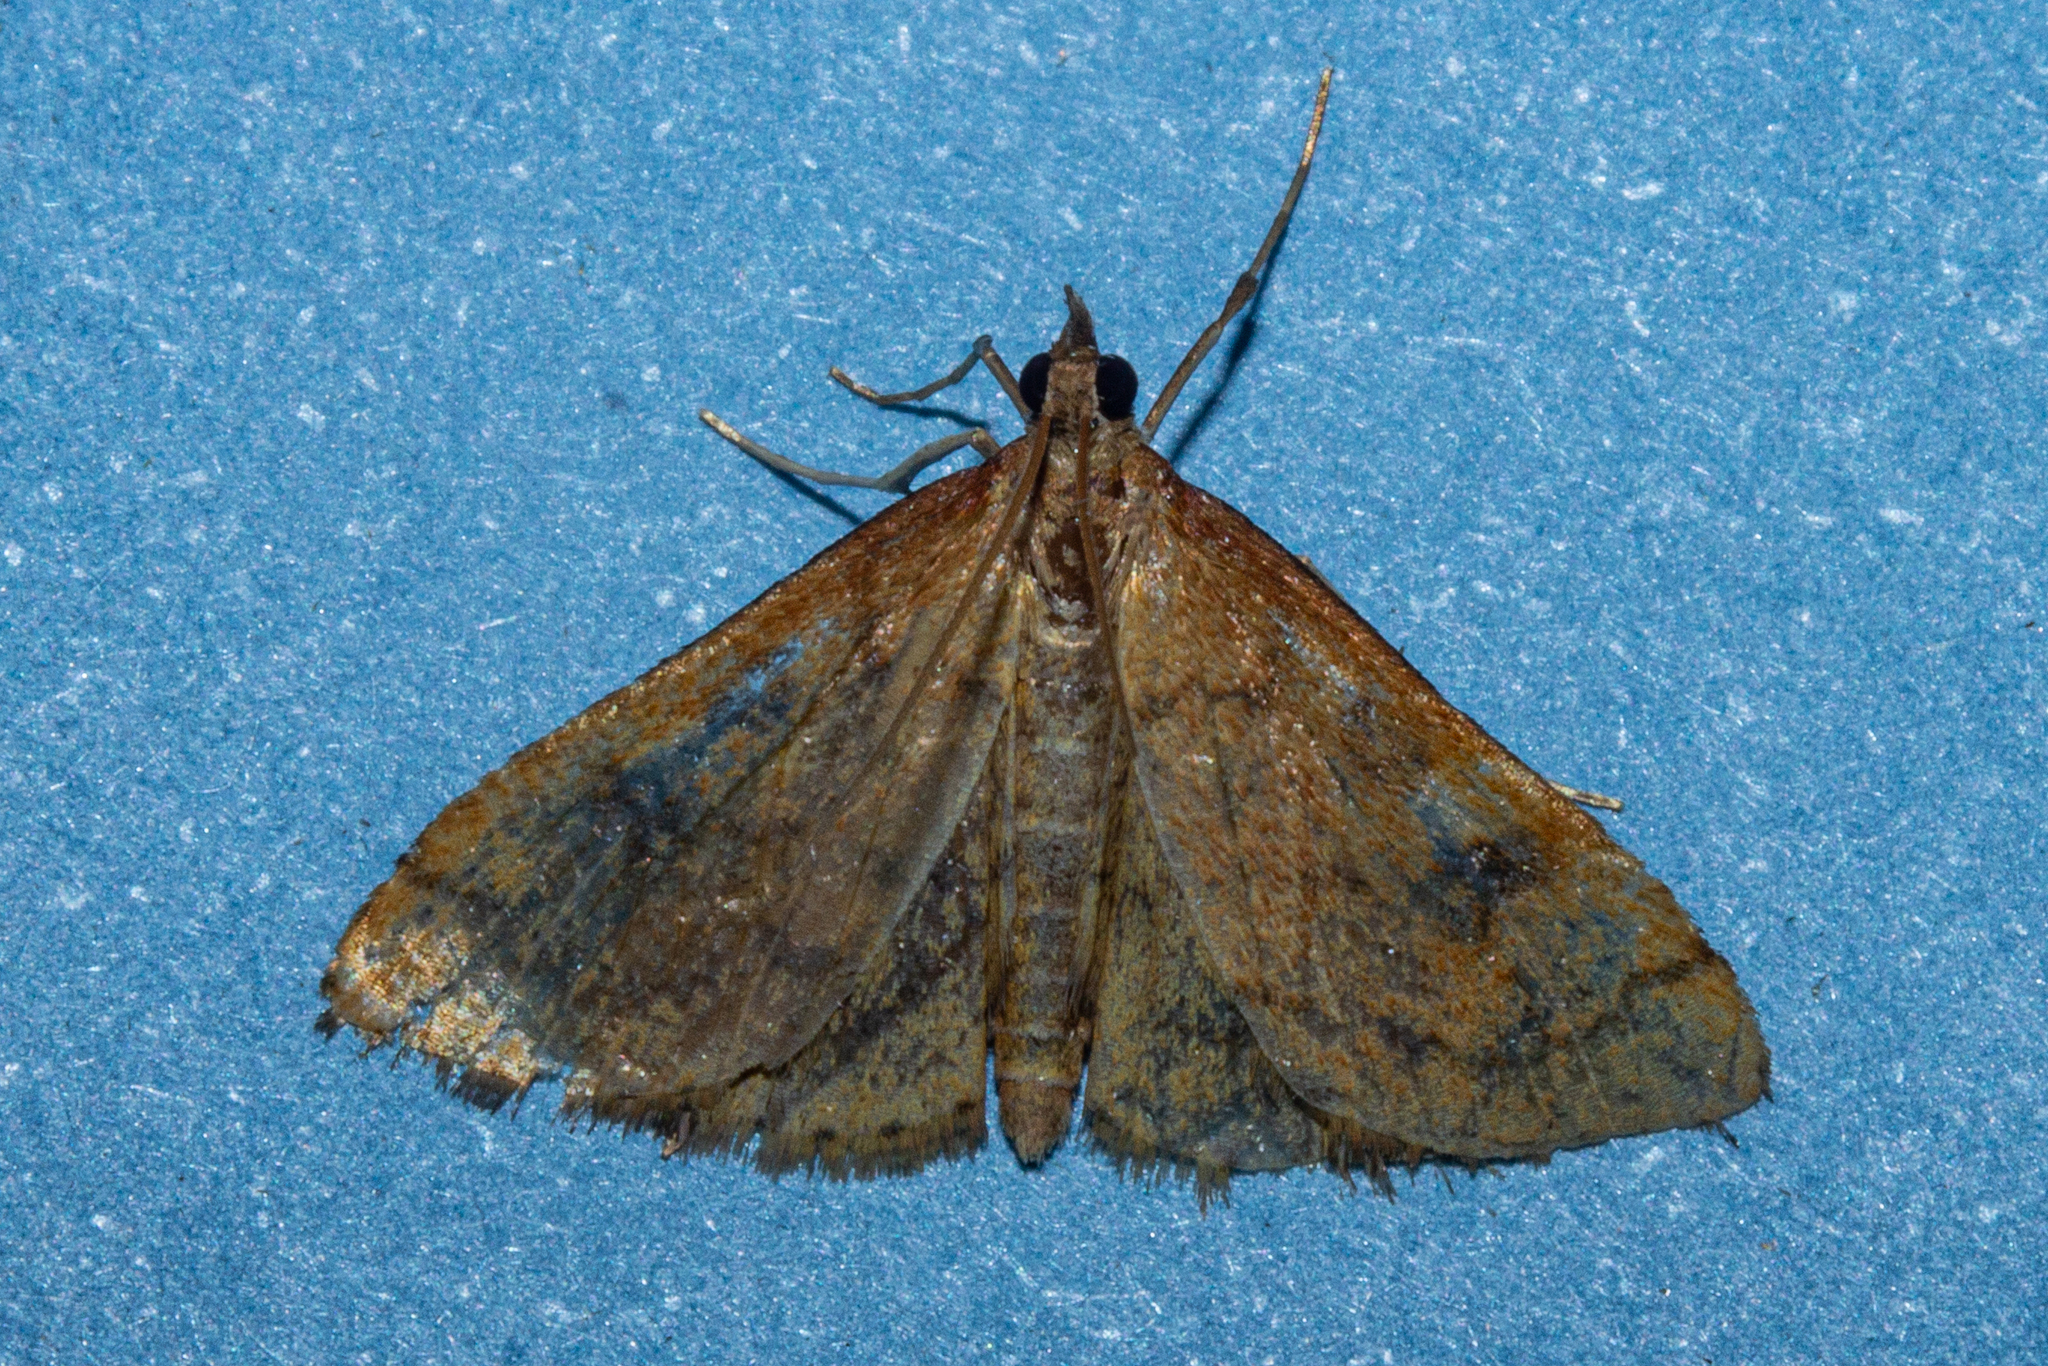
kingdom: Animalia
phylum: Arthropoda
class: Insecta
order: Lepidoptera
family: Crambidae
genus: Udea
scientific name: Udea Mnesictena flavidalis
